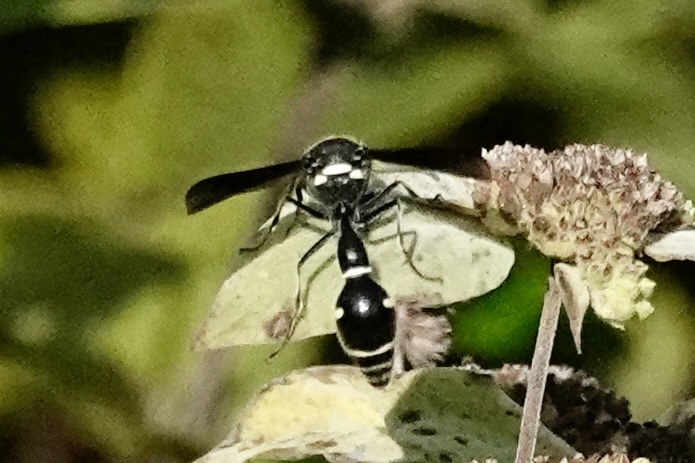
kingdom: Animalia
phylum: Arthropoda
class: Insecta
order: Hymenoptera
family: Vespidae
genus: Eumenes
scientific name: Eumenes fraternus
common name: Fraternal potter wasp
